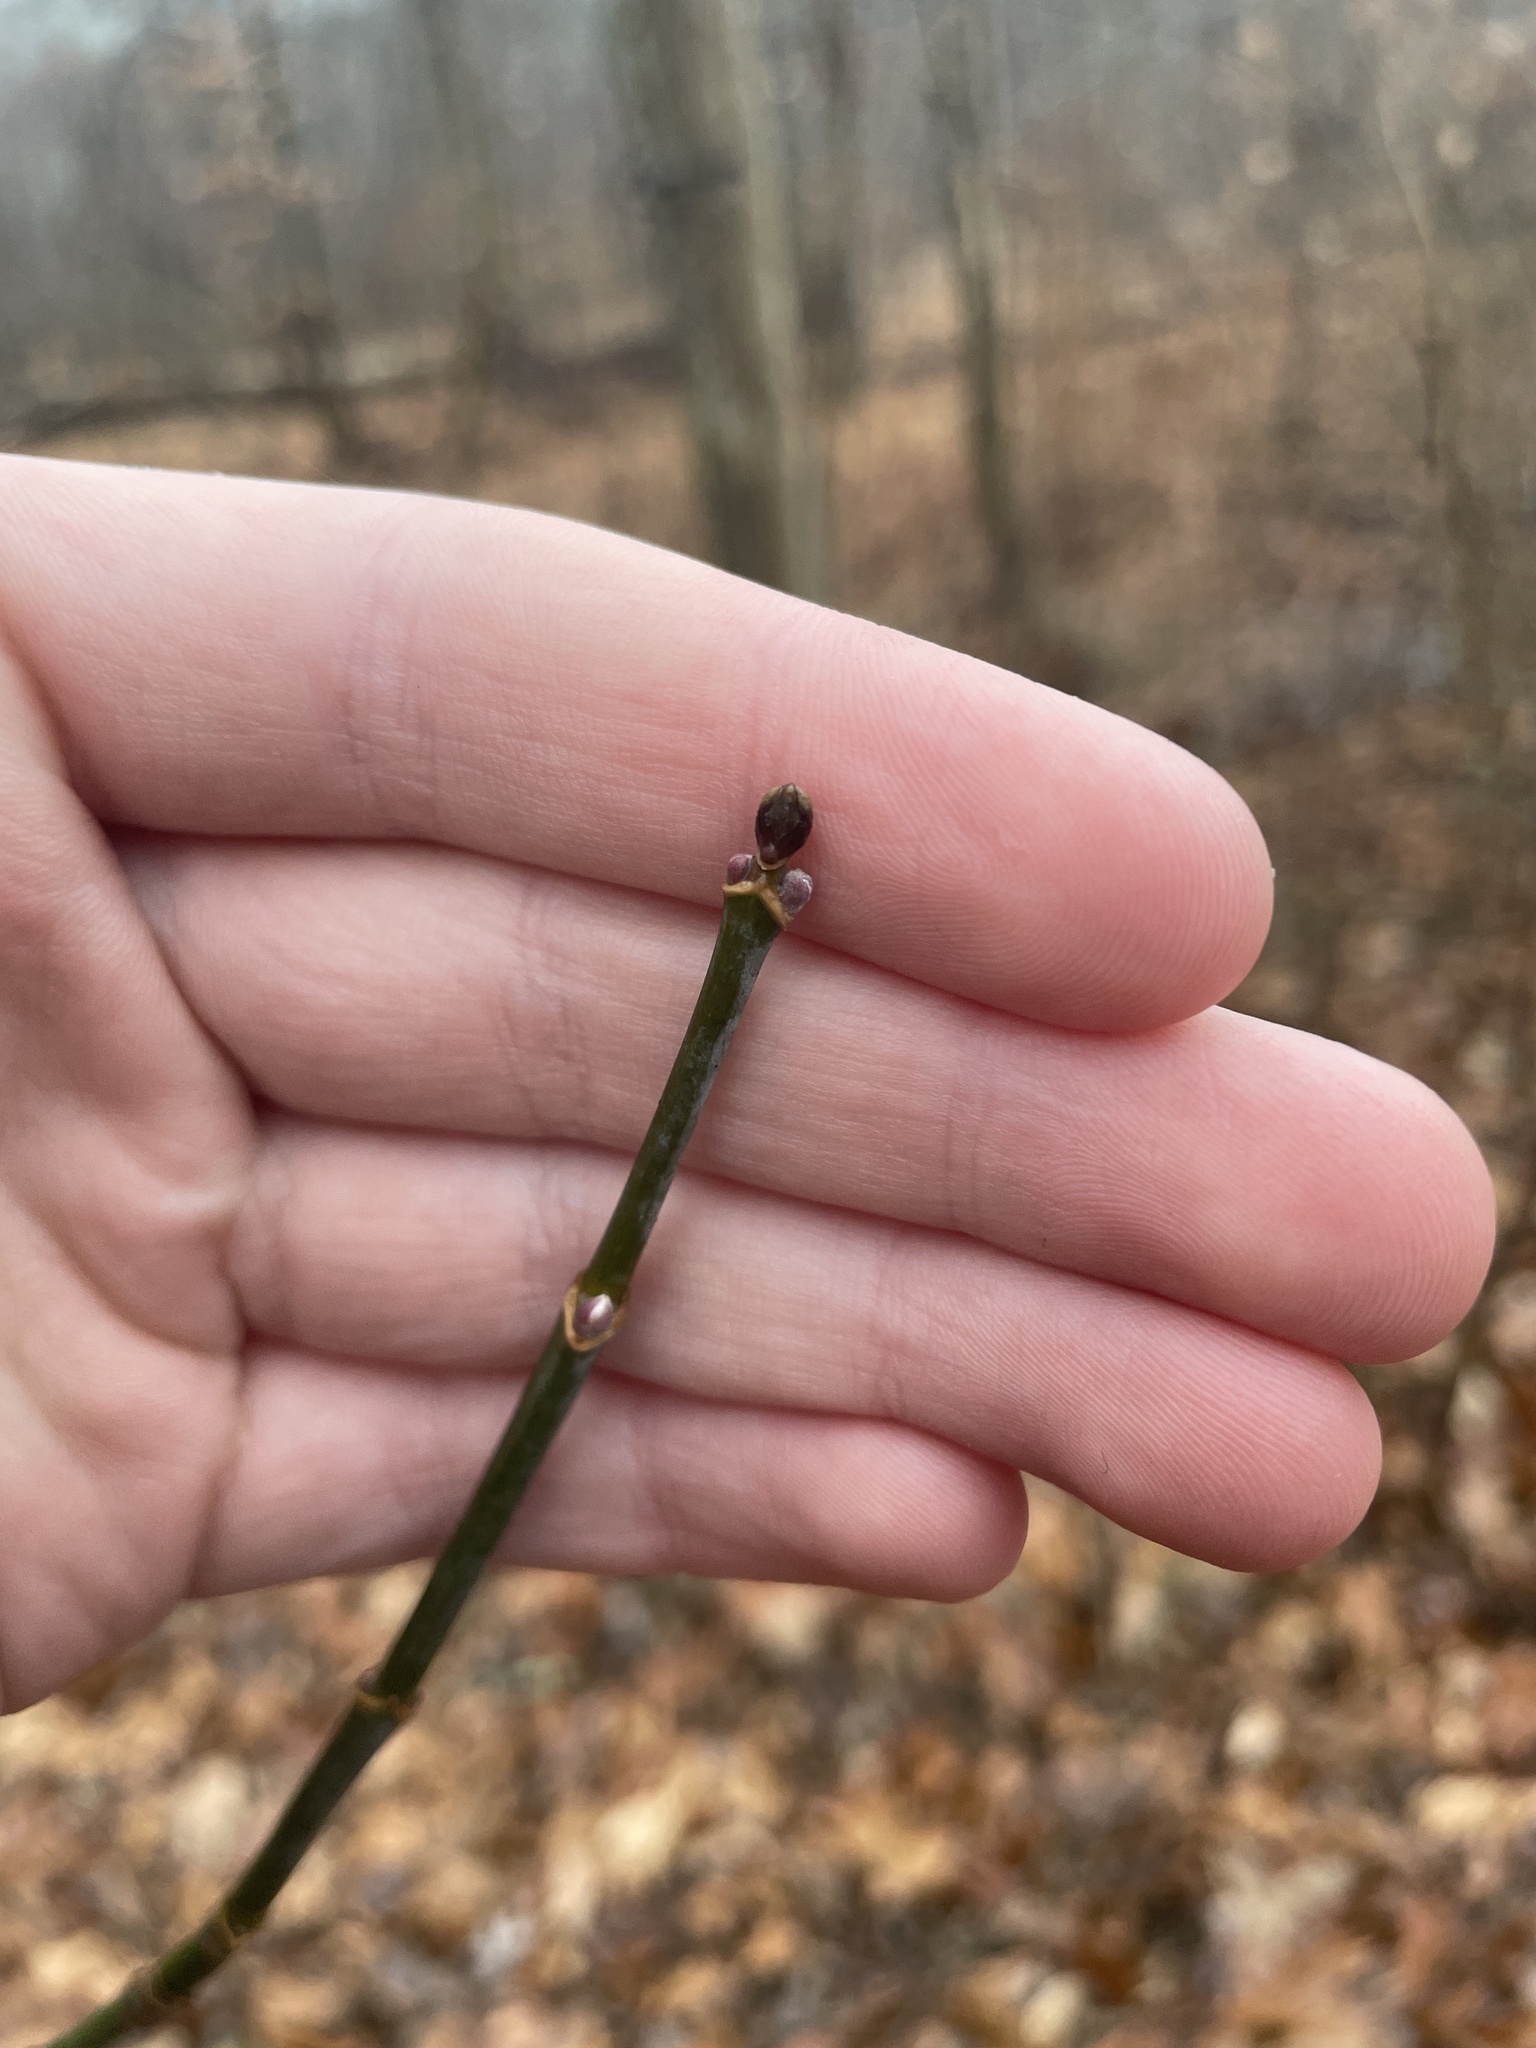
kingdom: Plantae
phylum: Tracheophyta
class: Magnoliopsida
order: Sapindales
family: Sapindaceae
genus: Acer
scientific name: Acer negundo
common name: Ashleaf maple
